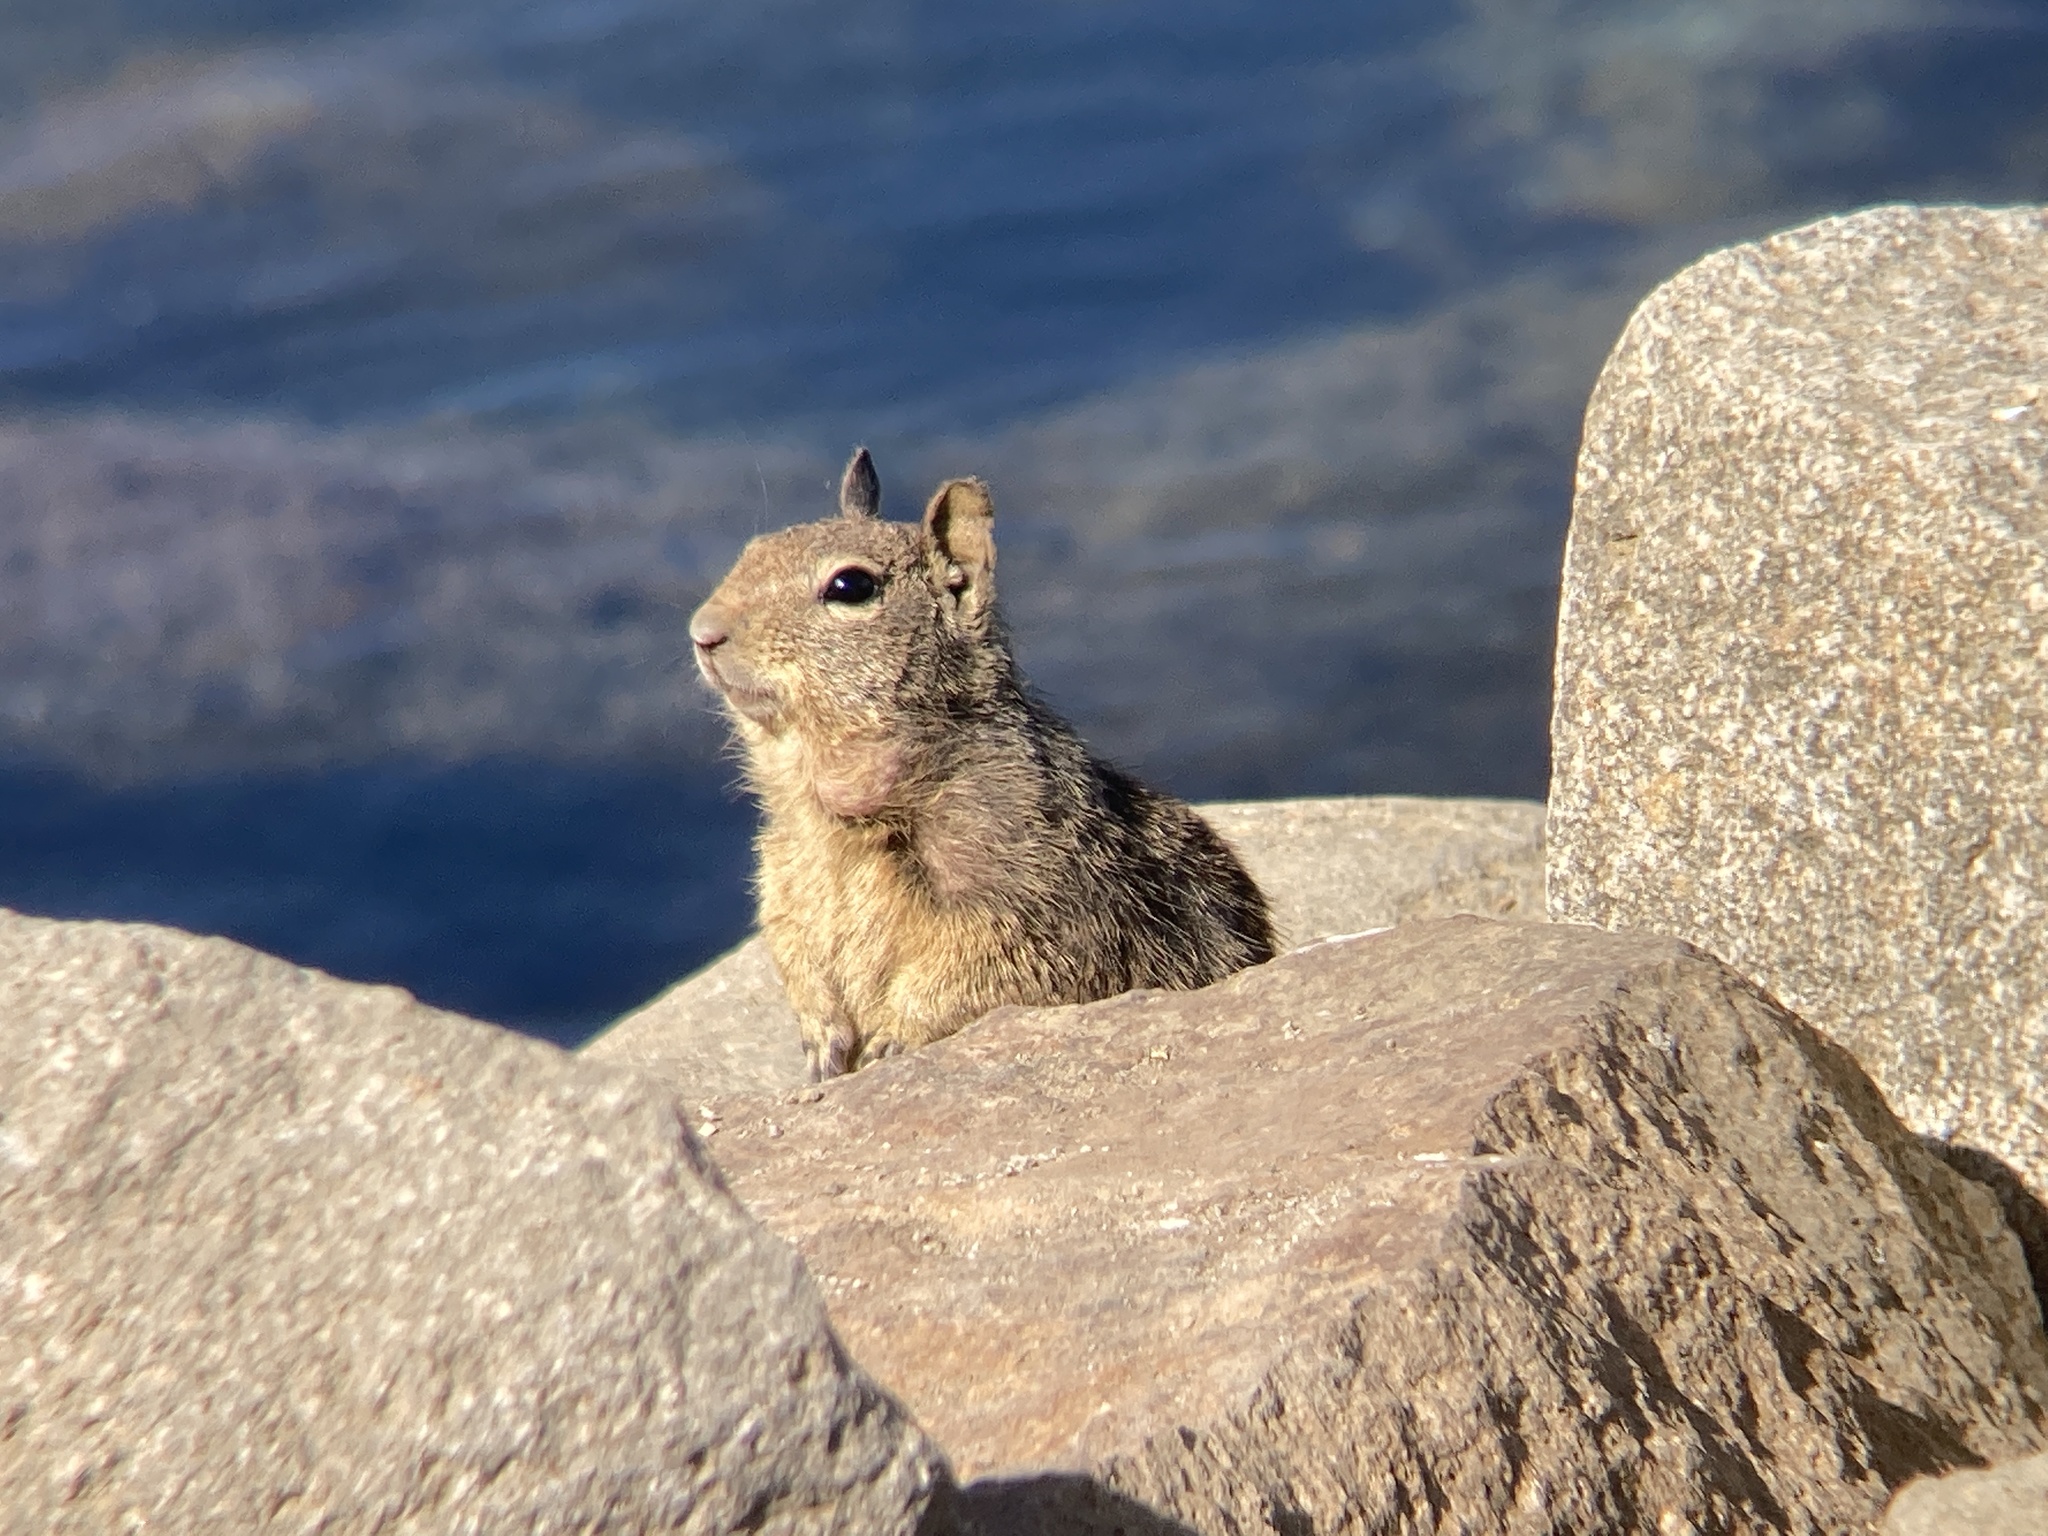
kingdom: Animalia
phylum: Chordata
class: Mammalia
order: Rodentia
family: Sciuridae
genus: Otospermophilus
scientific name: Otospermophilus beecheyi
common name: California ground squirrel
